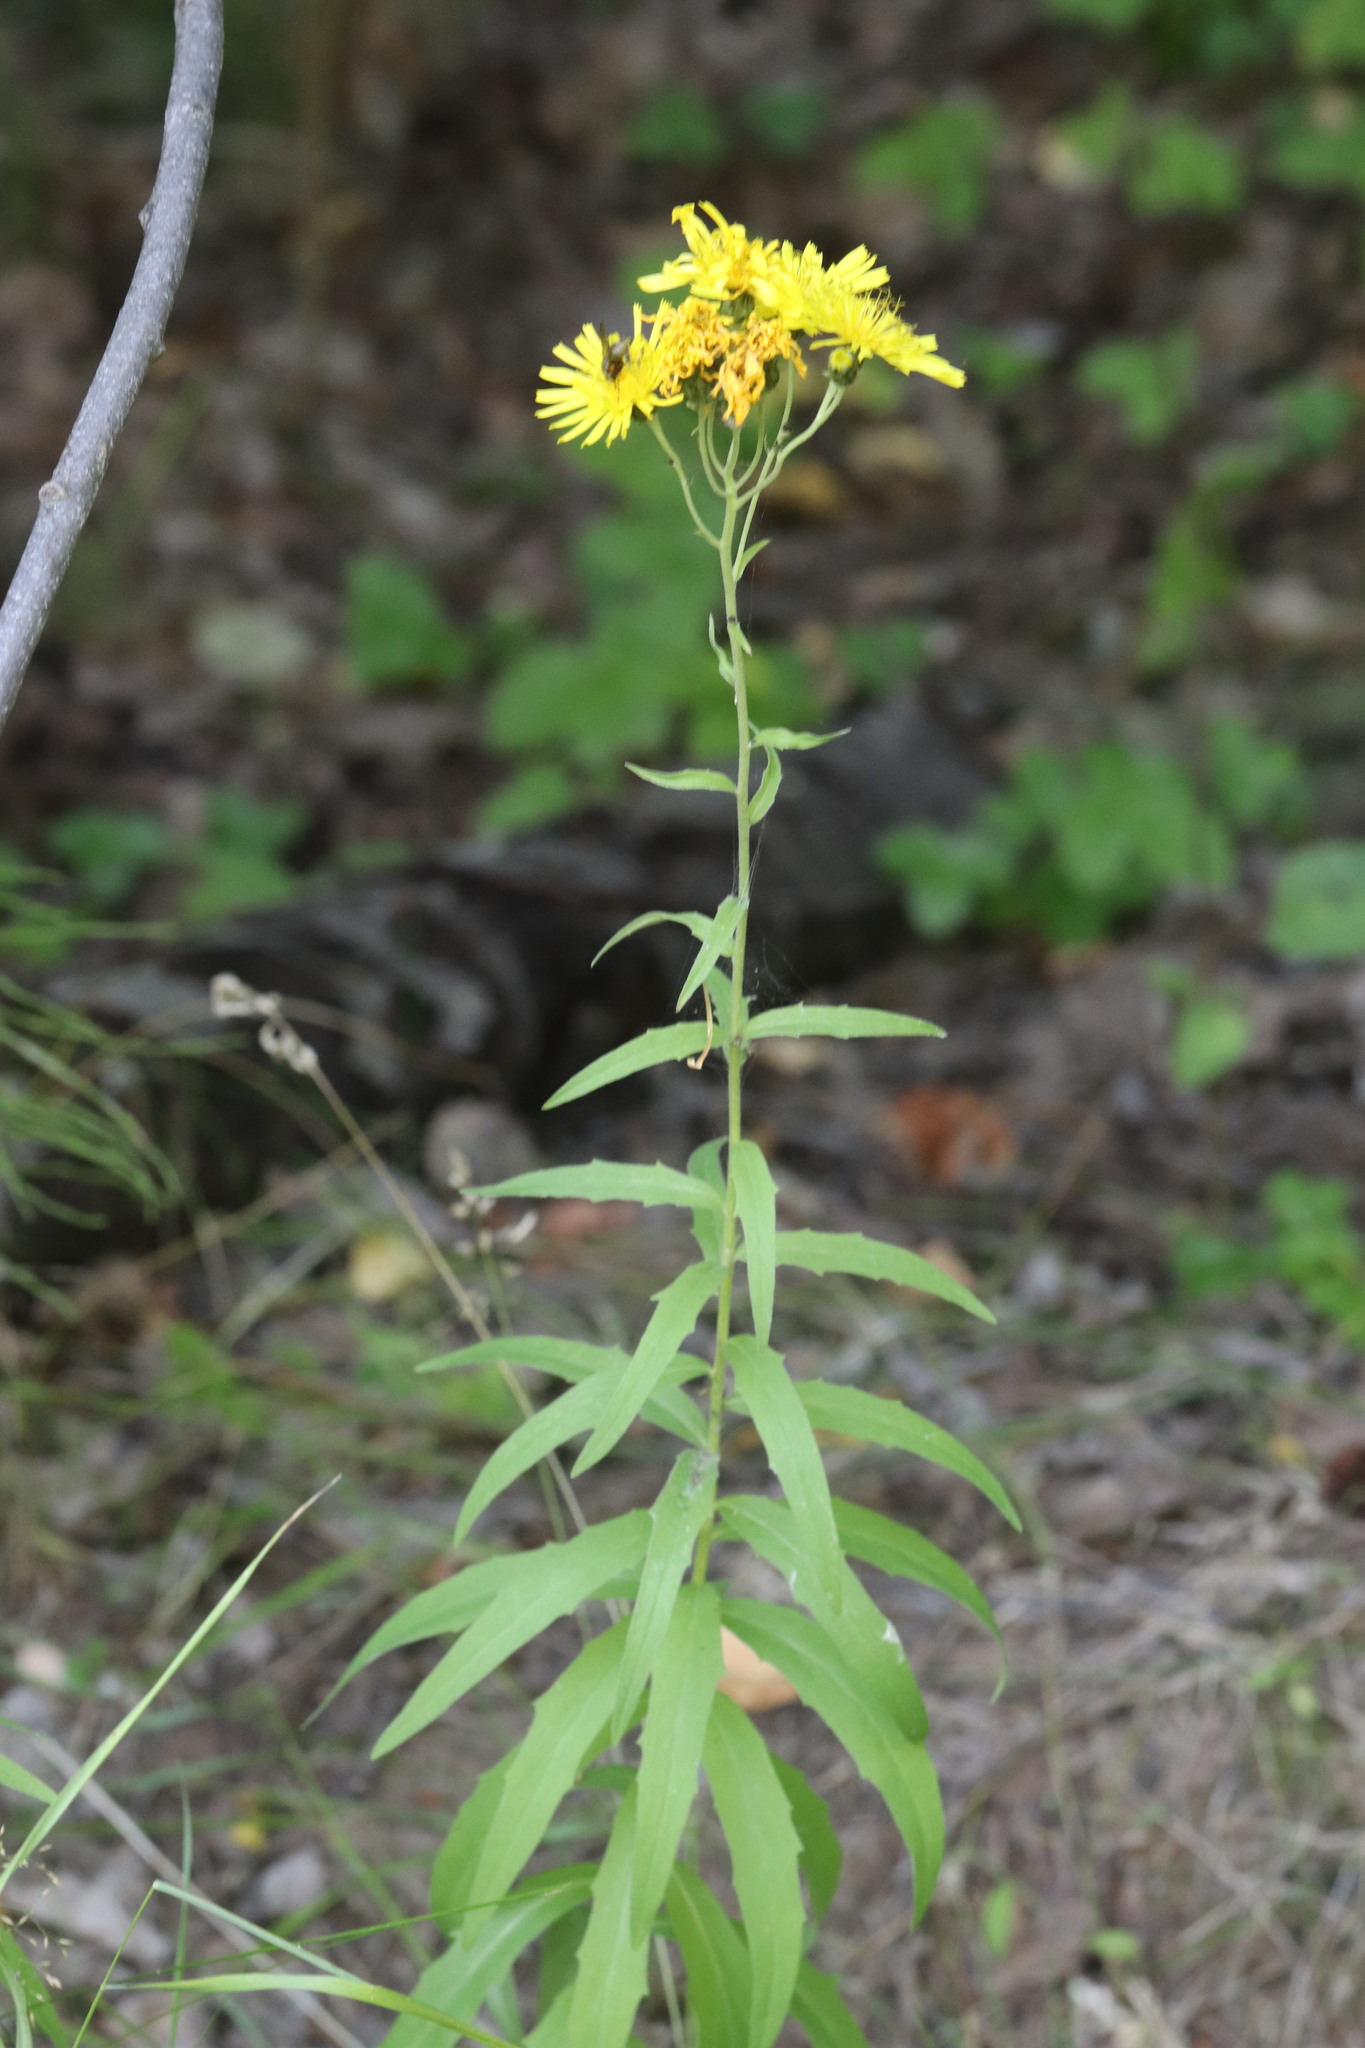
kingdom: Plantae
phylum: Tracheophyta
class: Magnoliopsida
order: Asterales
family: Asteraceae
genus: Hieracium
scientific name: Hieracium umbellatum
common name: Northern hawkweed
